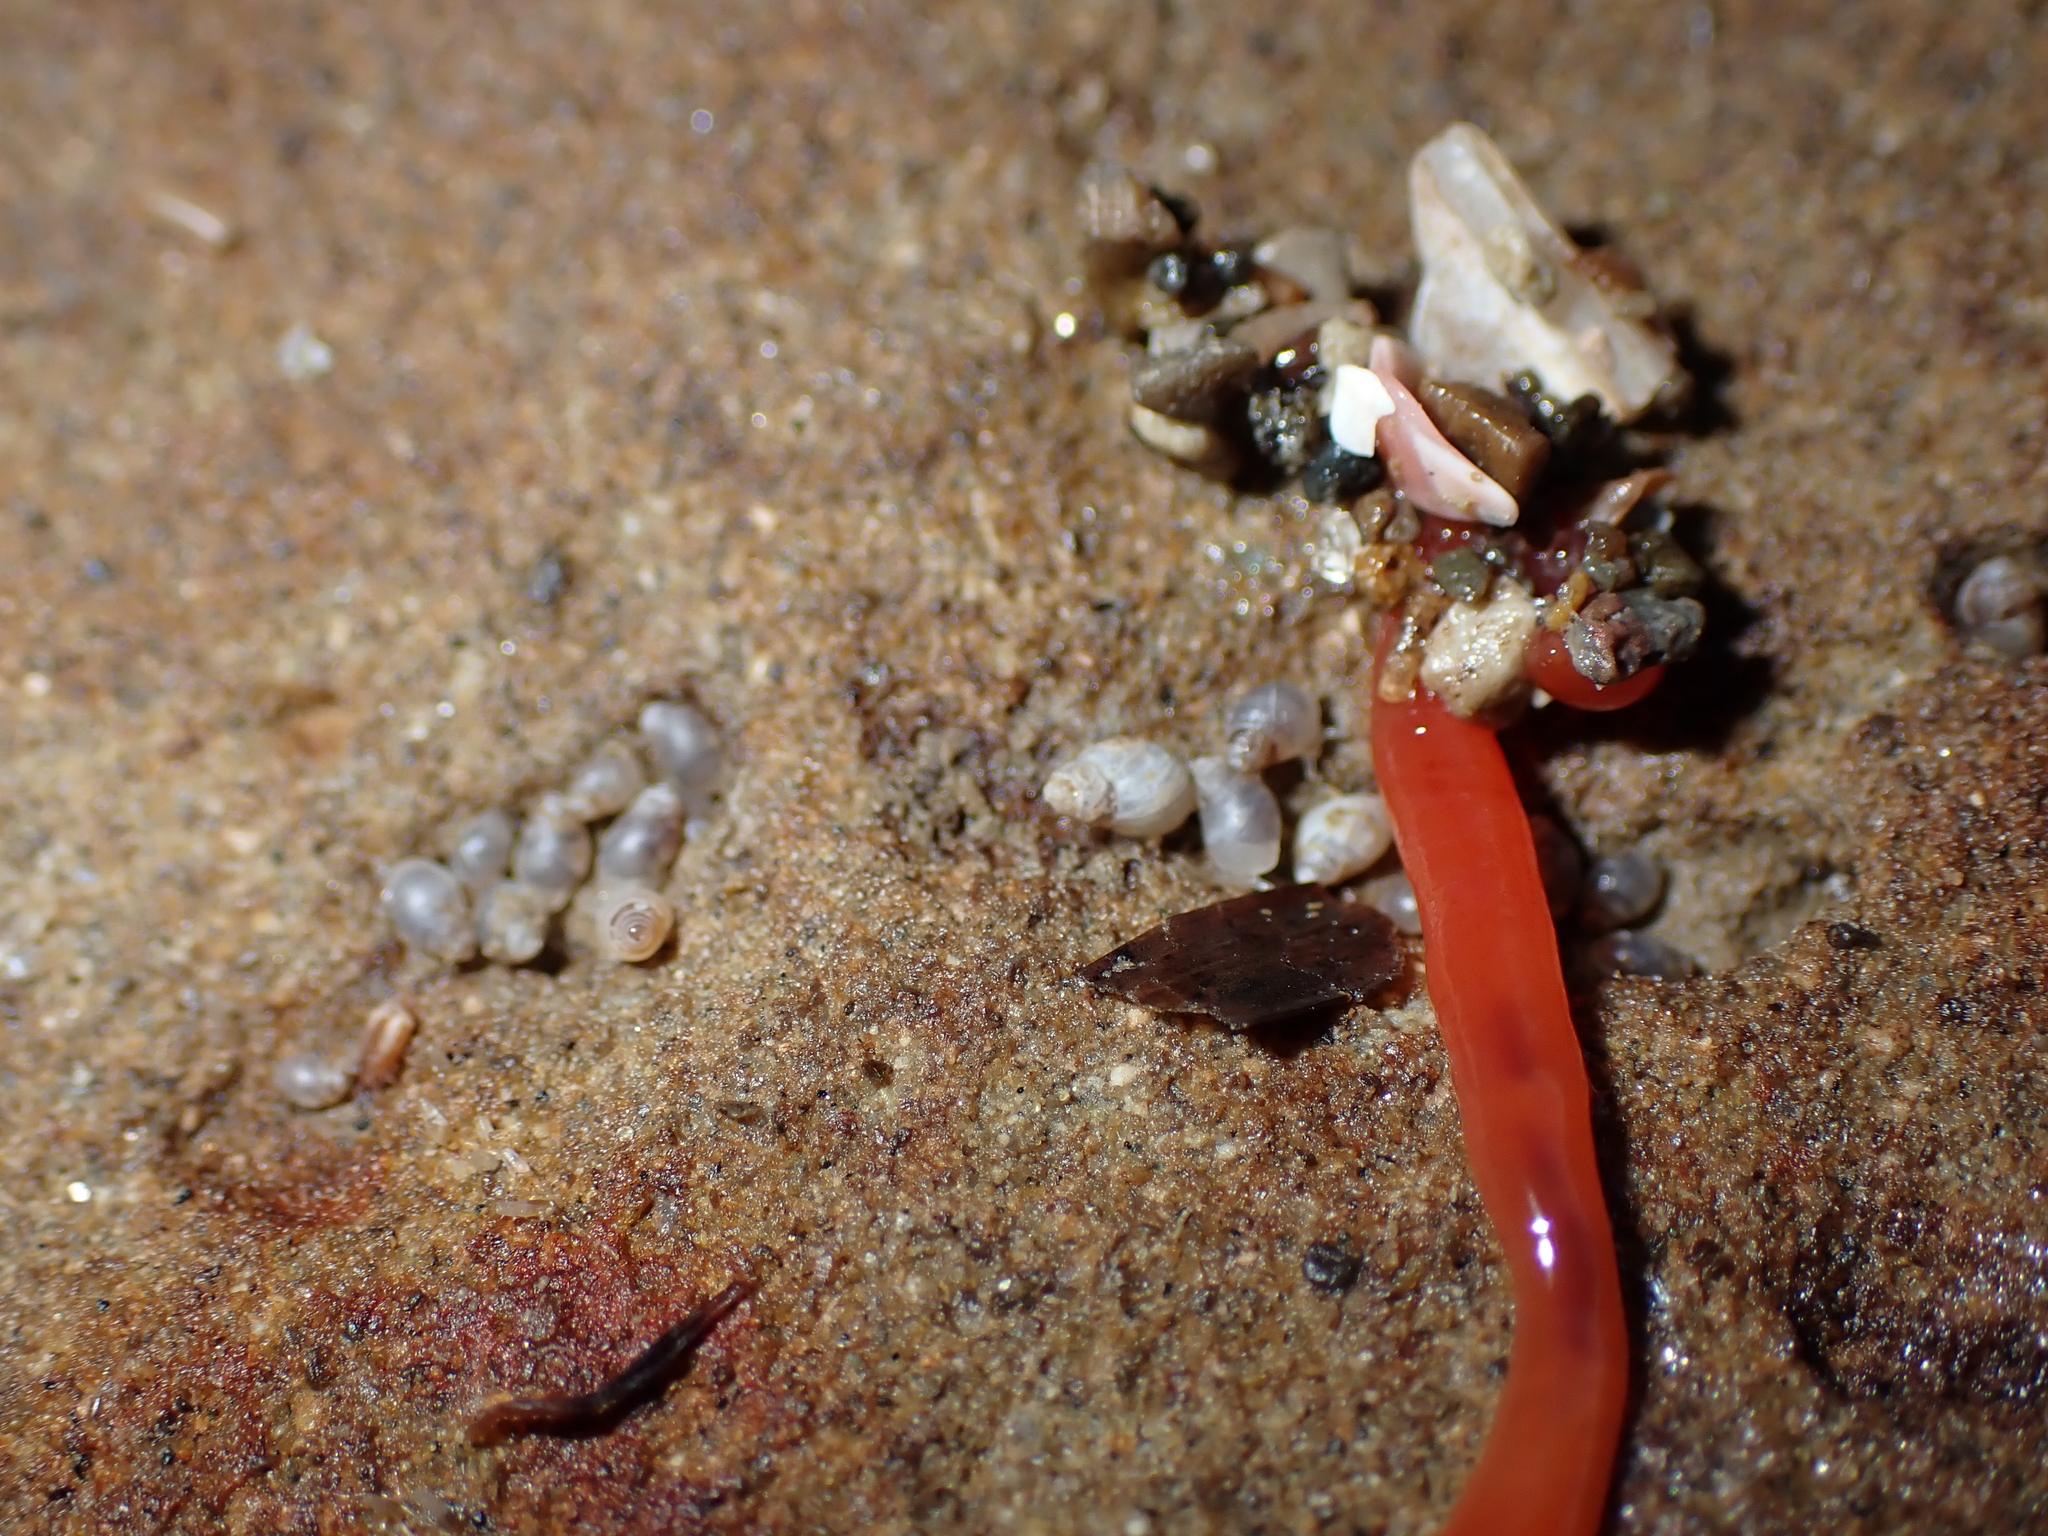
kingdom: Animalia
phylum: Mollusca
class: Gastropoda
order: Ellobiida
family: Ellobiidae
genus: Leuconopsis
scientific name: Leuconopsis obsoleta
